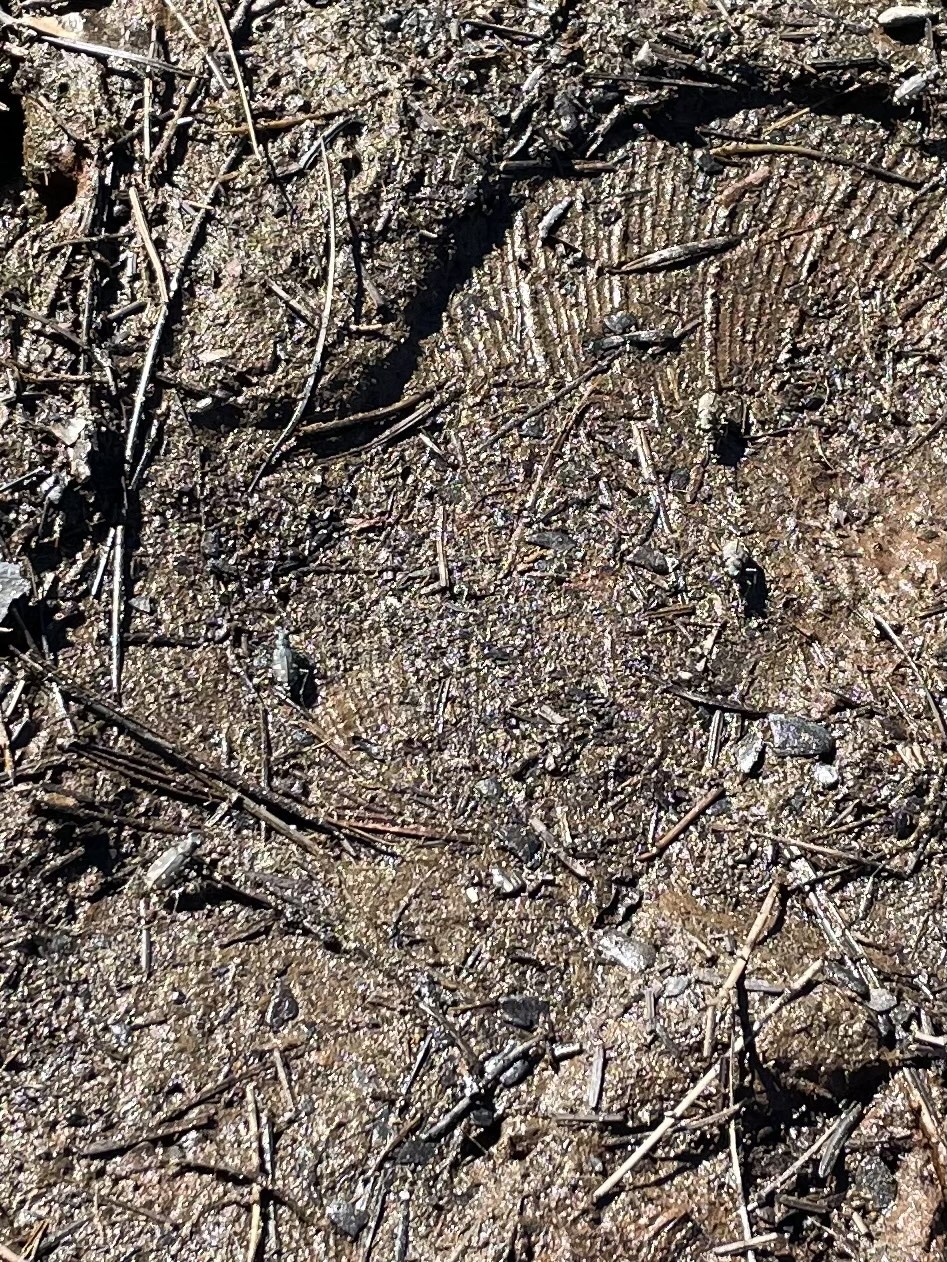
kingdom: Animalia
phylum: Arthropoda
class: Insecta
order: Coleoptera
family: Carabidae
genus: Cicindela
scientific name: Cicindela oregona
